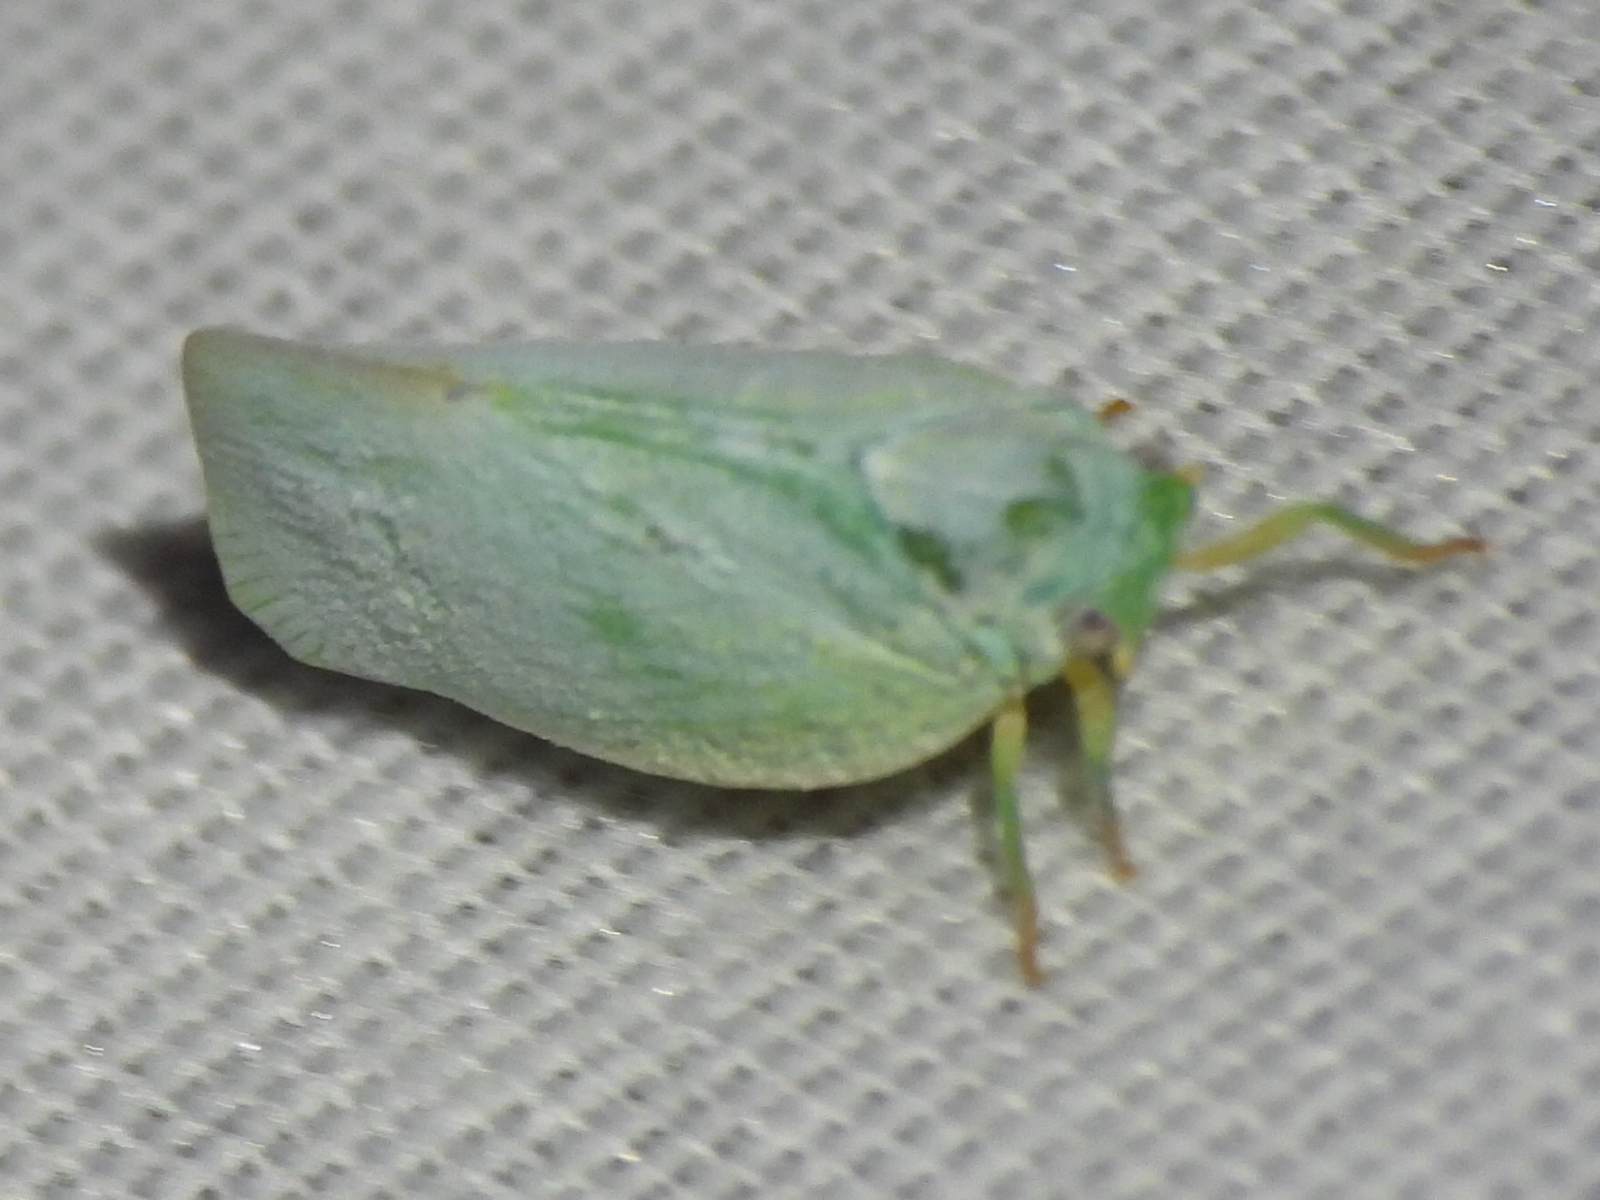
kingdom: Animalia
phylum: Arthropoda
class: Insecta
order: Hemiptera
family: Flatidae
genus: Flatormenis
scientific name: Flatormenis proxima
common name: Northern flatid planthopper
